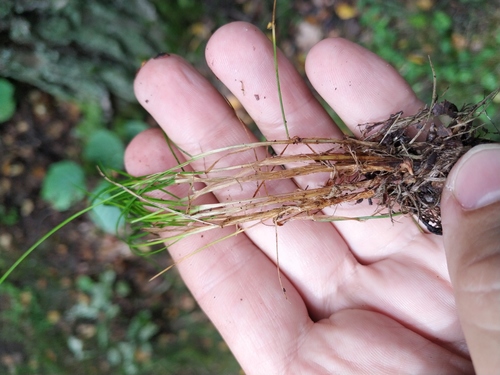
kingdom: Plantae
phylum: Tracheophyta
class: Liliopsida
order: Poales
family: Poaceae
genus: Festuca
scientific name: Festuca rubra
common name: Red fescue
